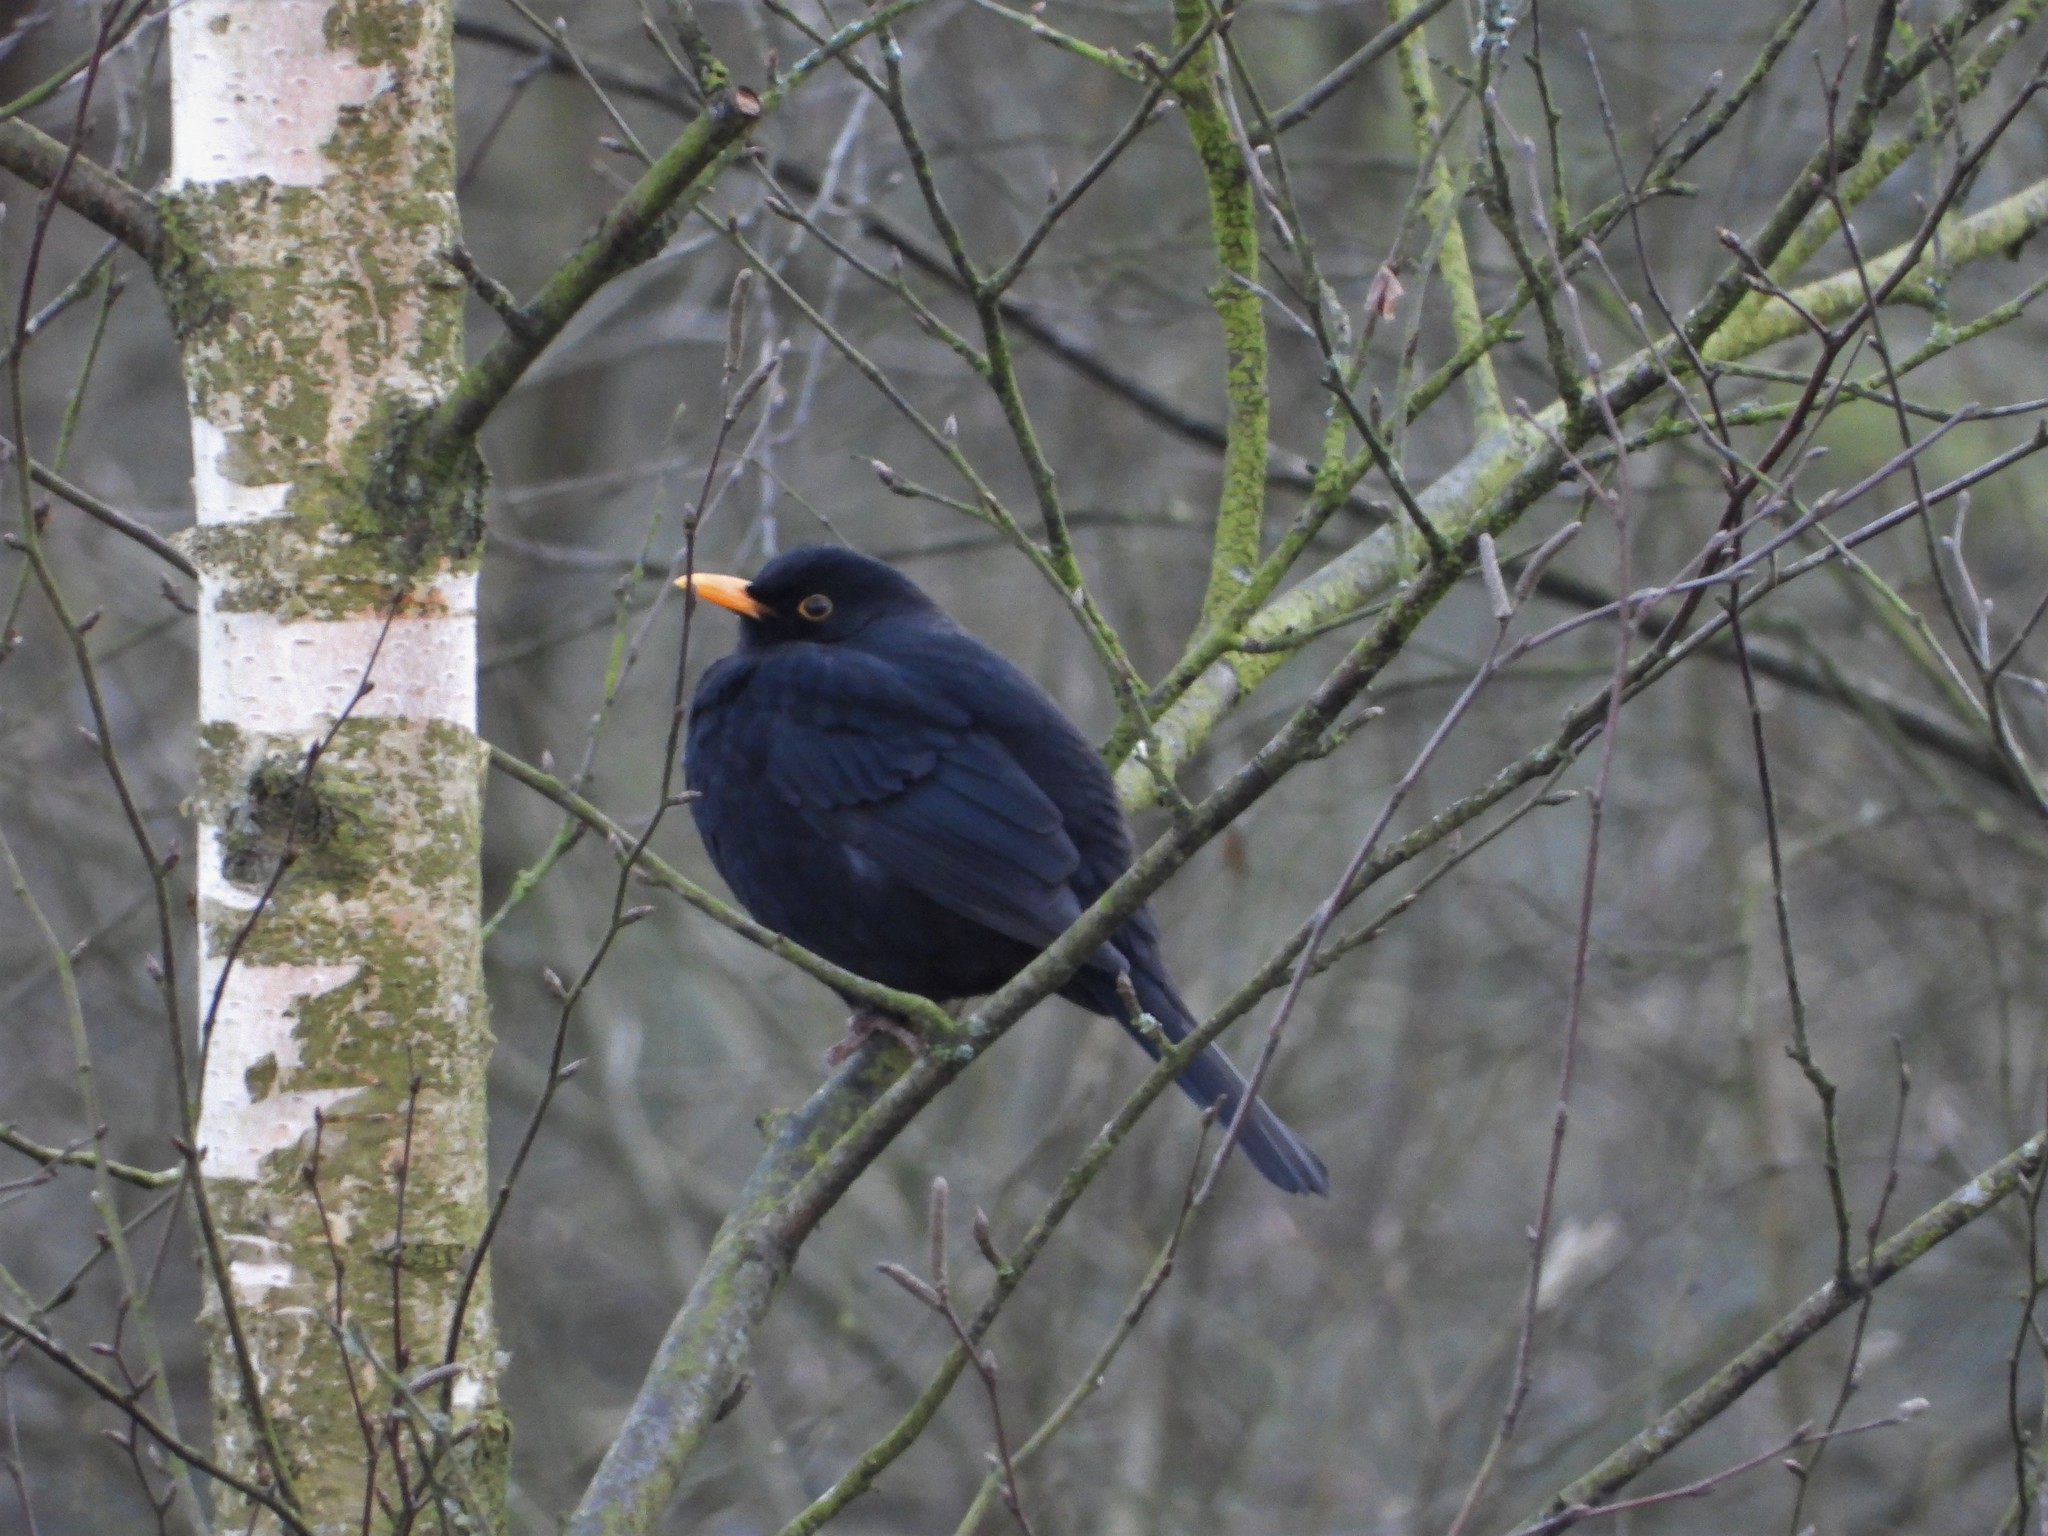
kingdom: Animalia
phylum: Chordata
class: Aves
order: Passeriformes
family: Turdidae
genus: Turdus
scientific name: Turdus merula
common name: Common blackbird
